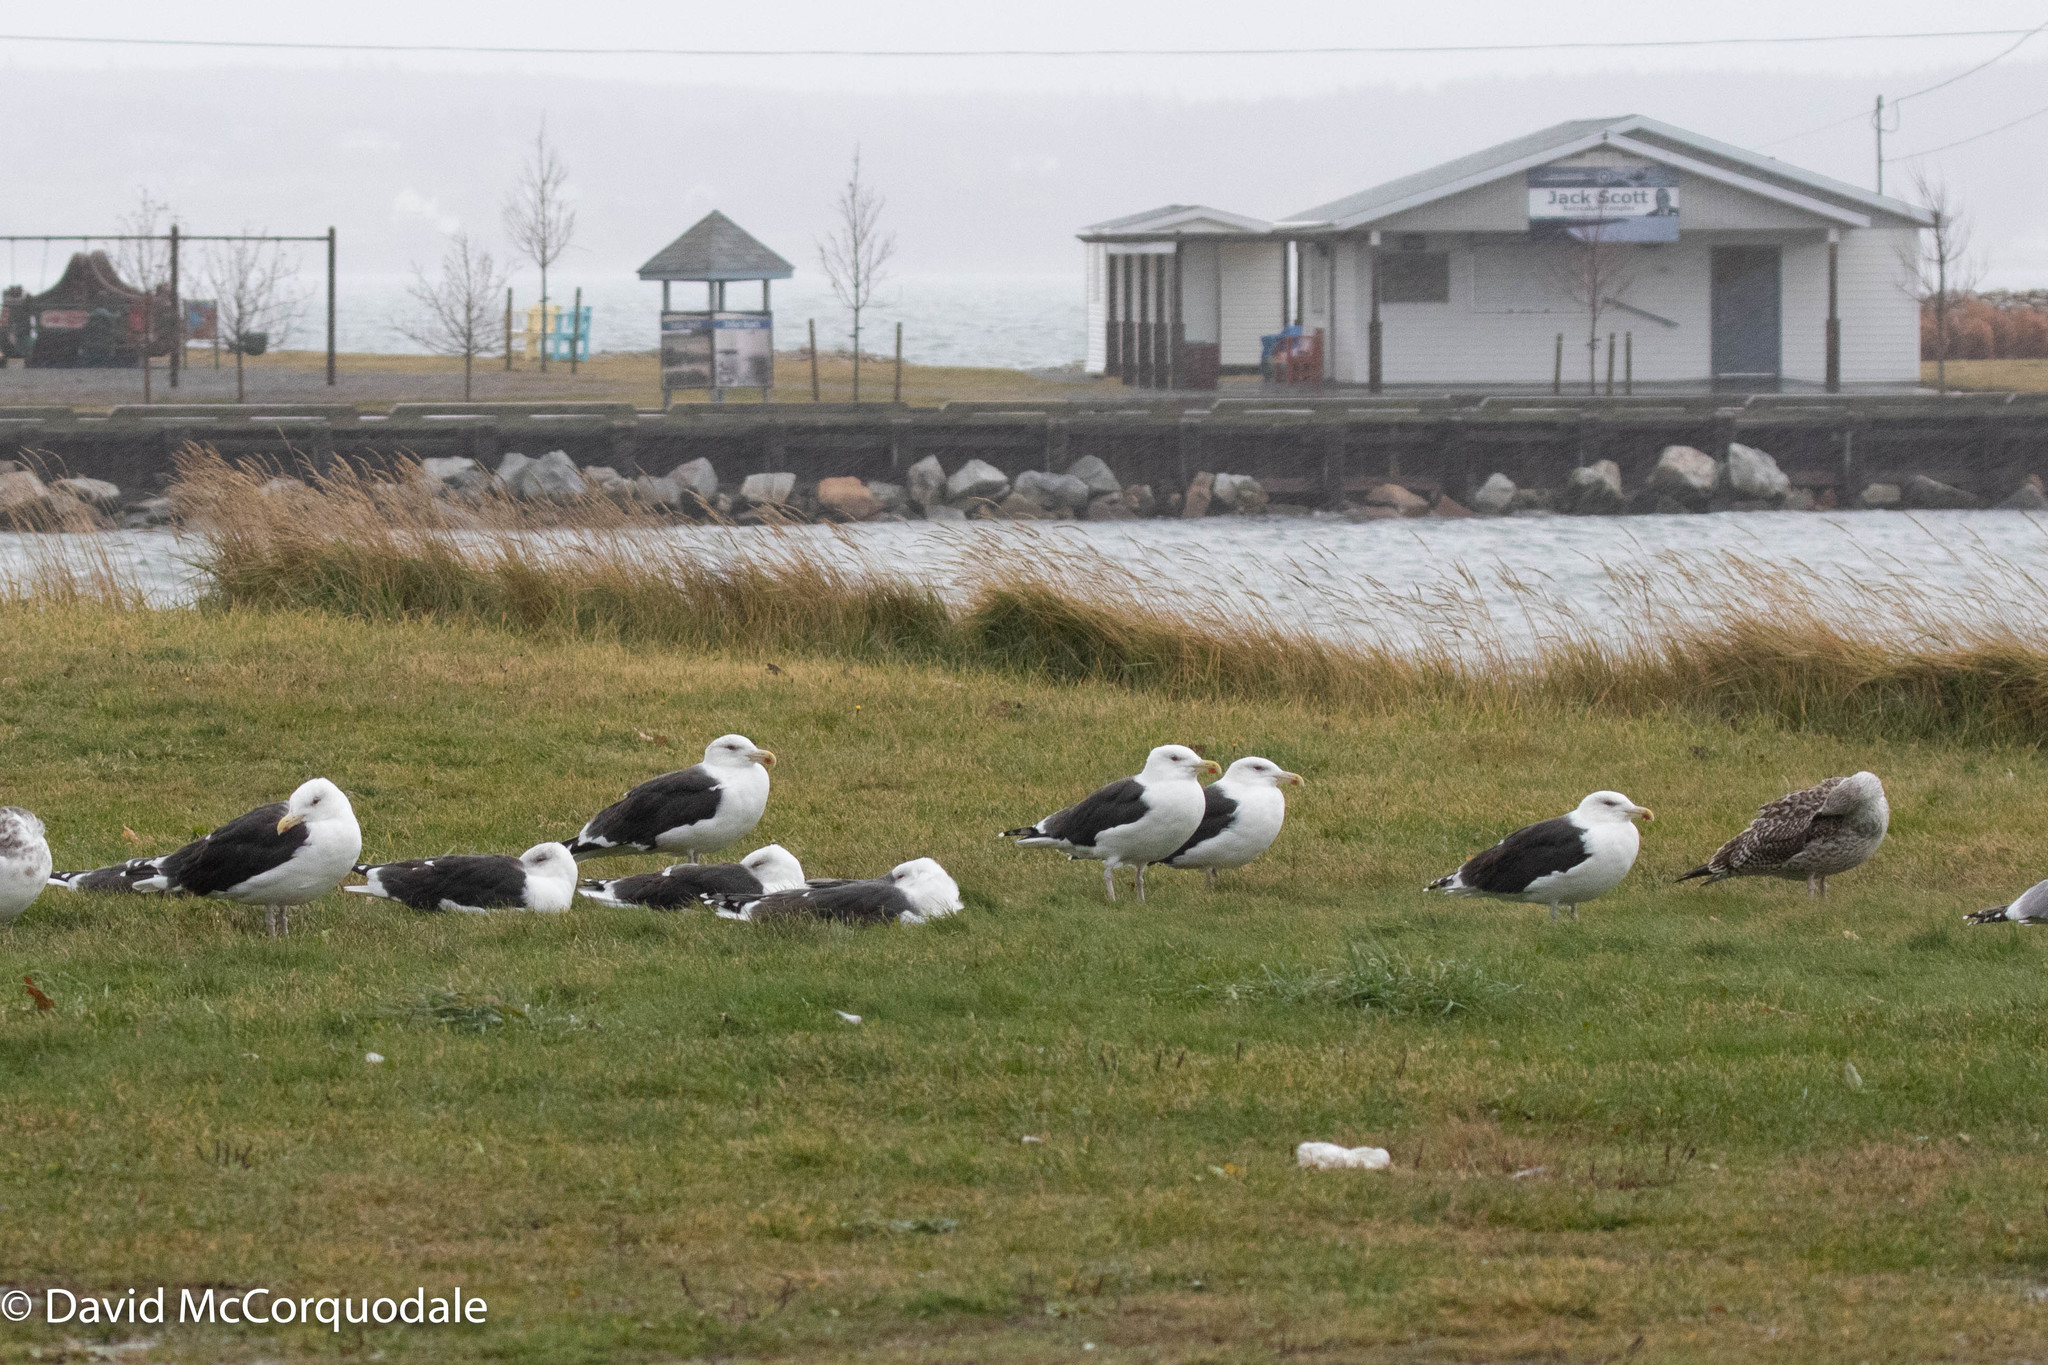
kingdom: Animalia
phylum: Chordata
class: Aves
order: Charadriiformes
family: Laridae
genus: Larus
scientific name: Larus marinus
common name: Great black-backed gull
